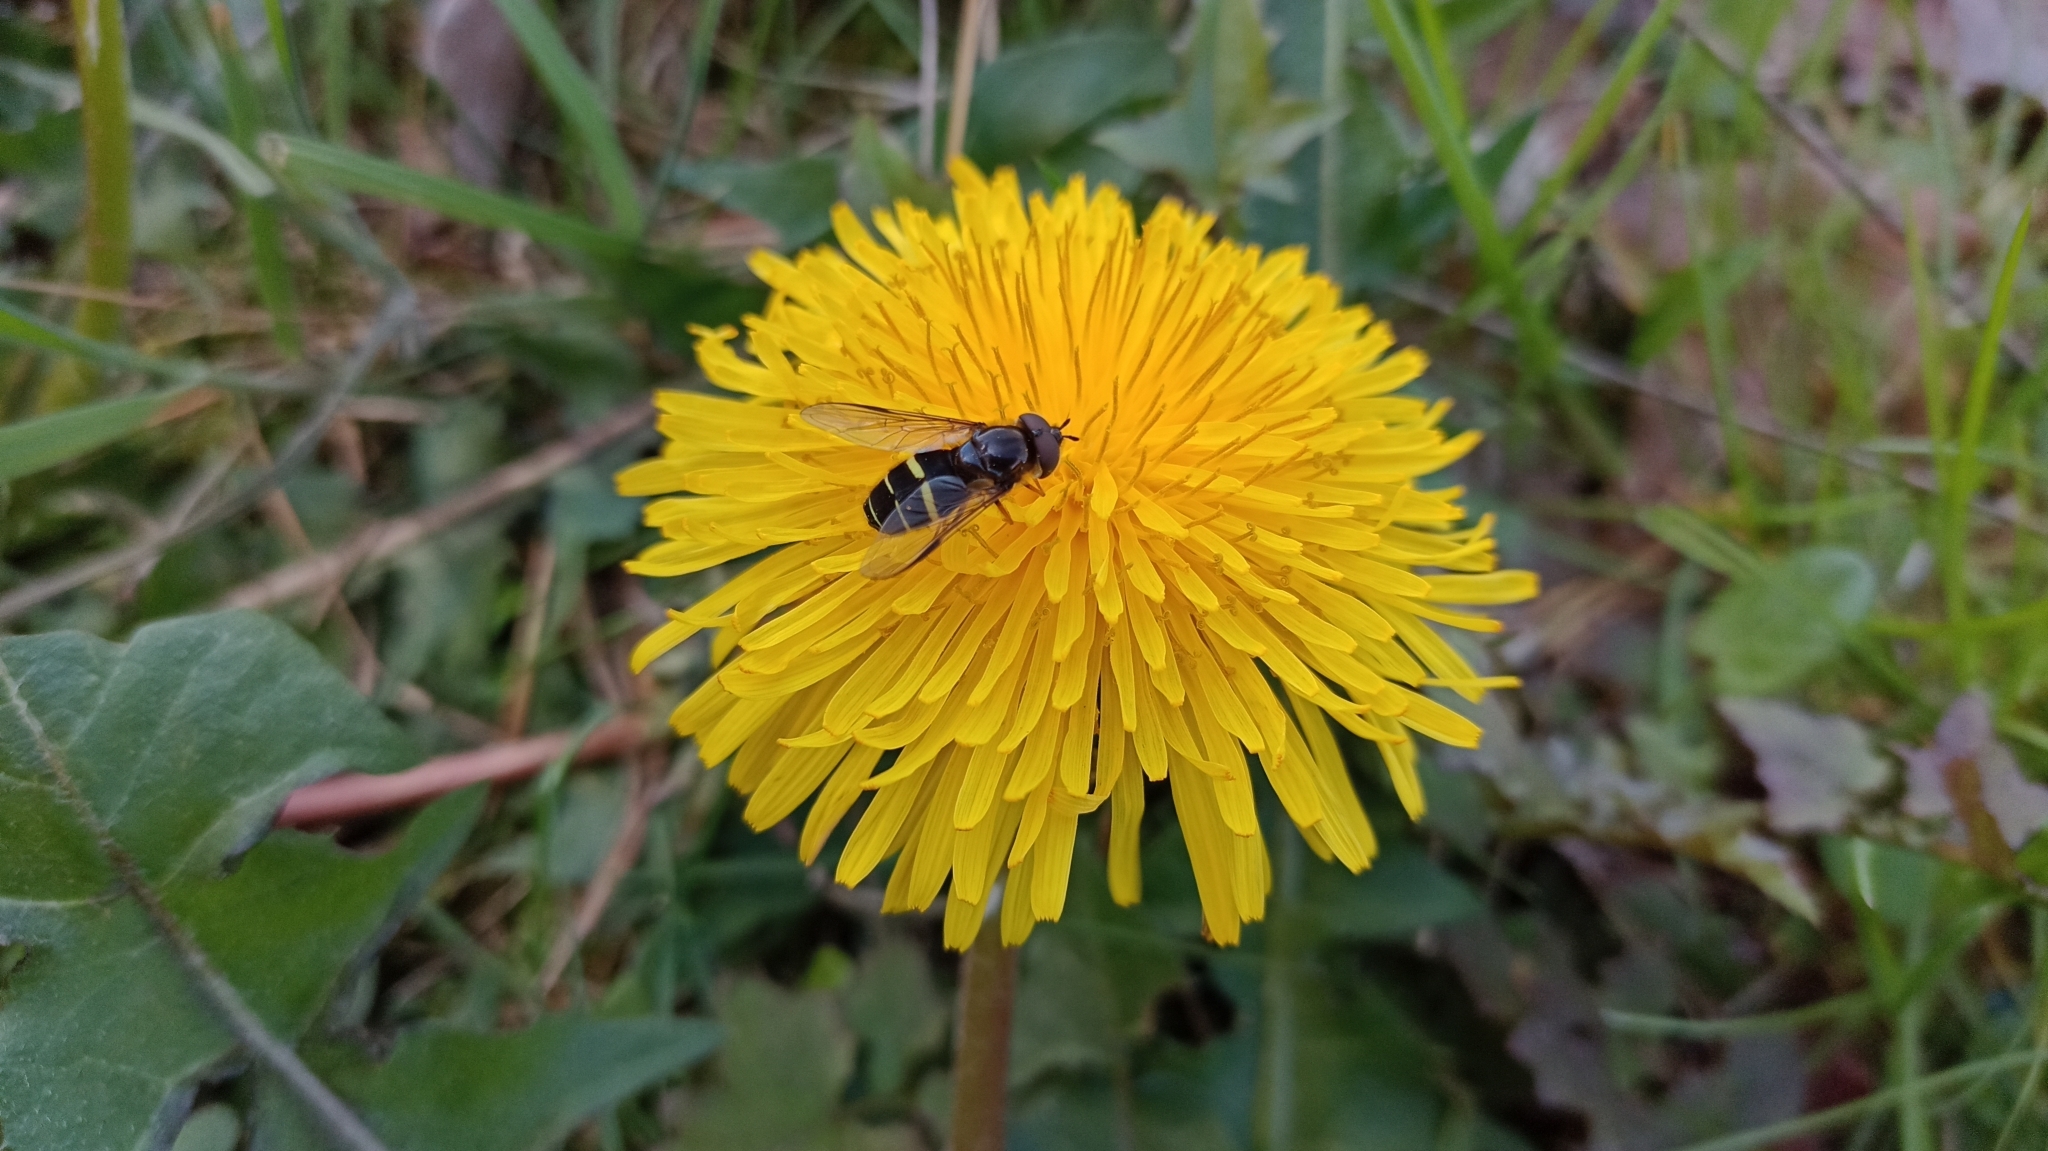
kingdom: Animalia
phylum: Arthropoda
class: Insecta
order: Diptera
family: Syrphidae
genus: Dasysyrphus
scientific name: Dasysyrphus tricinctus
